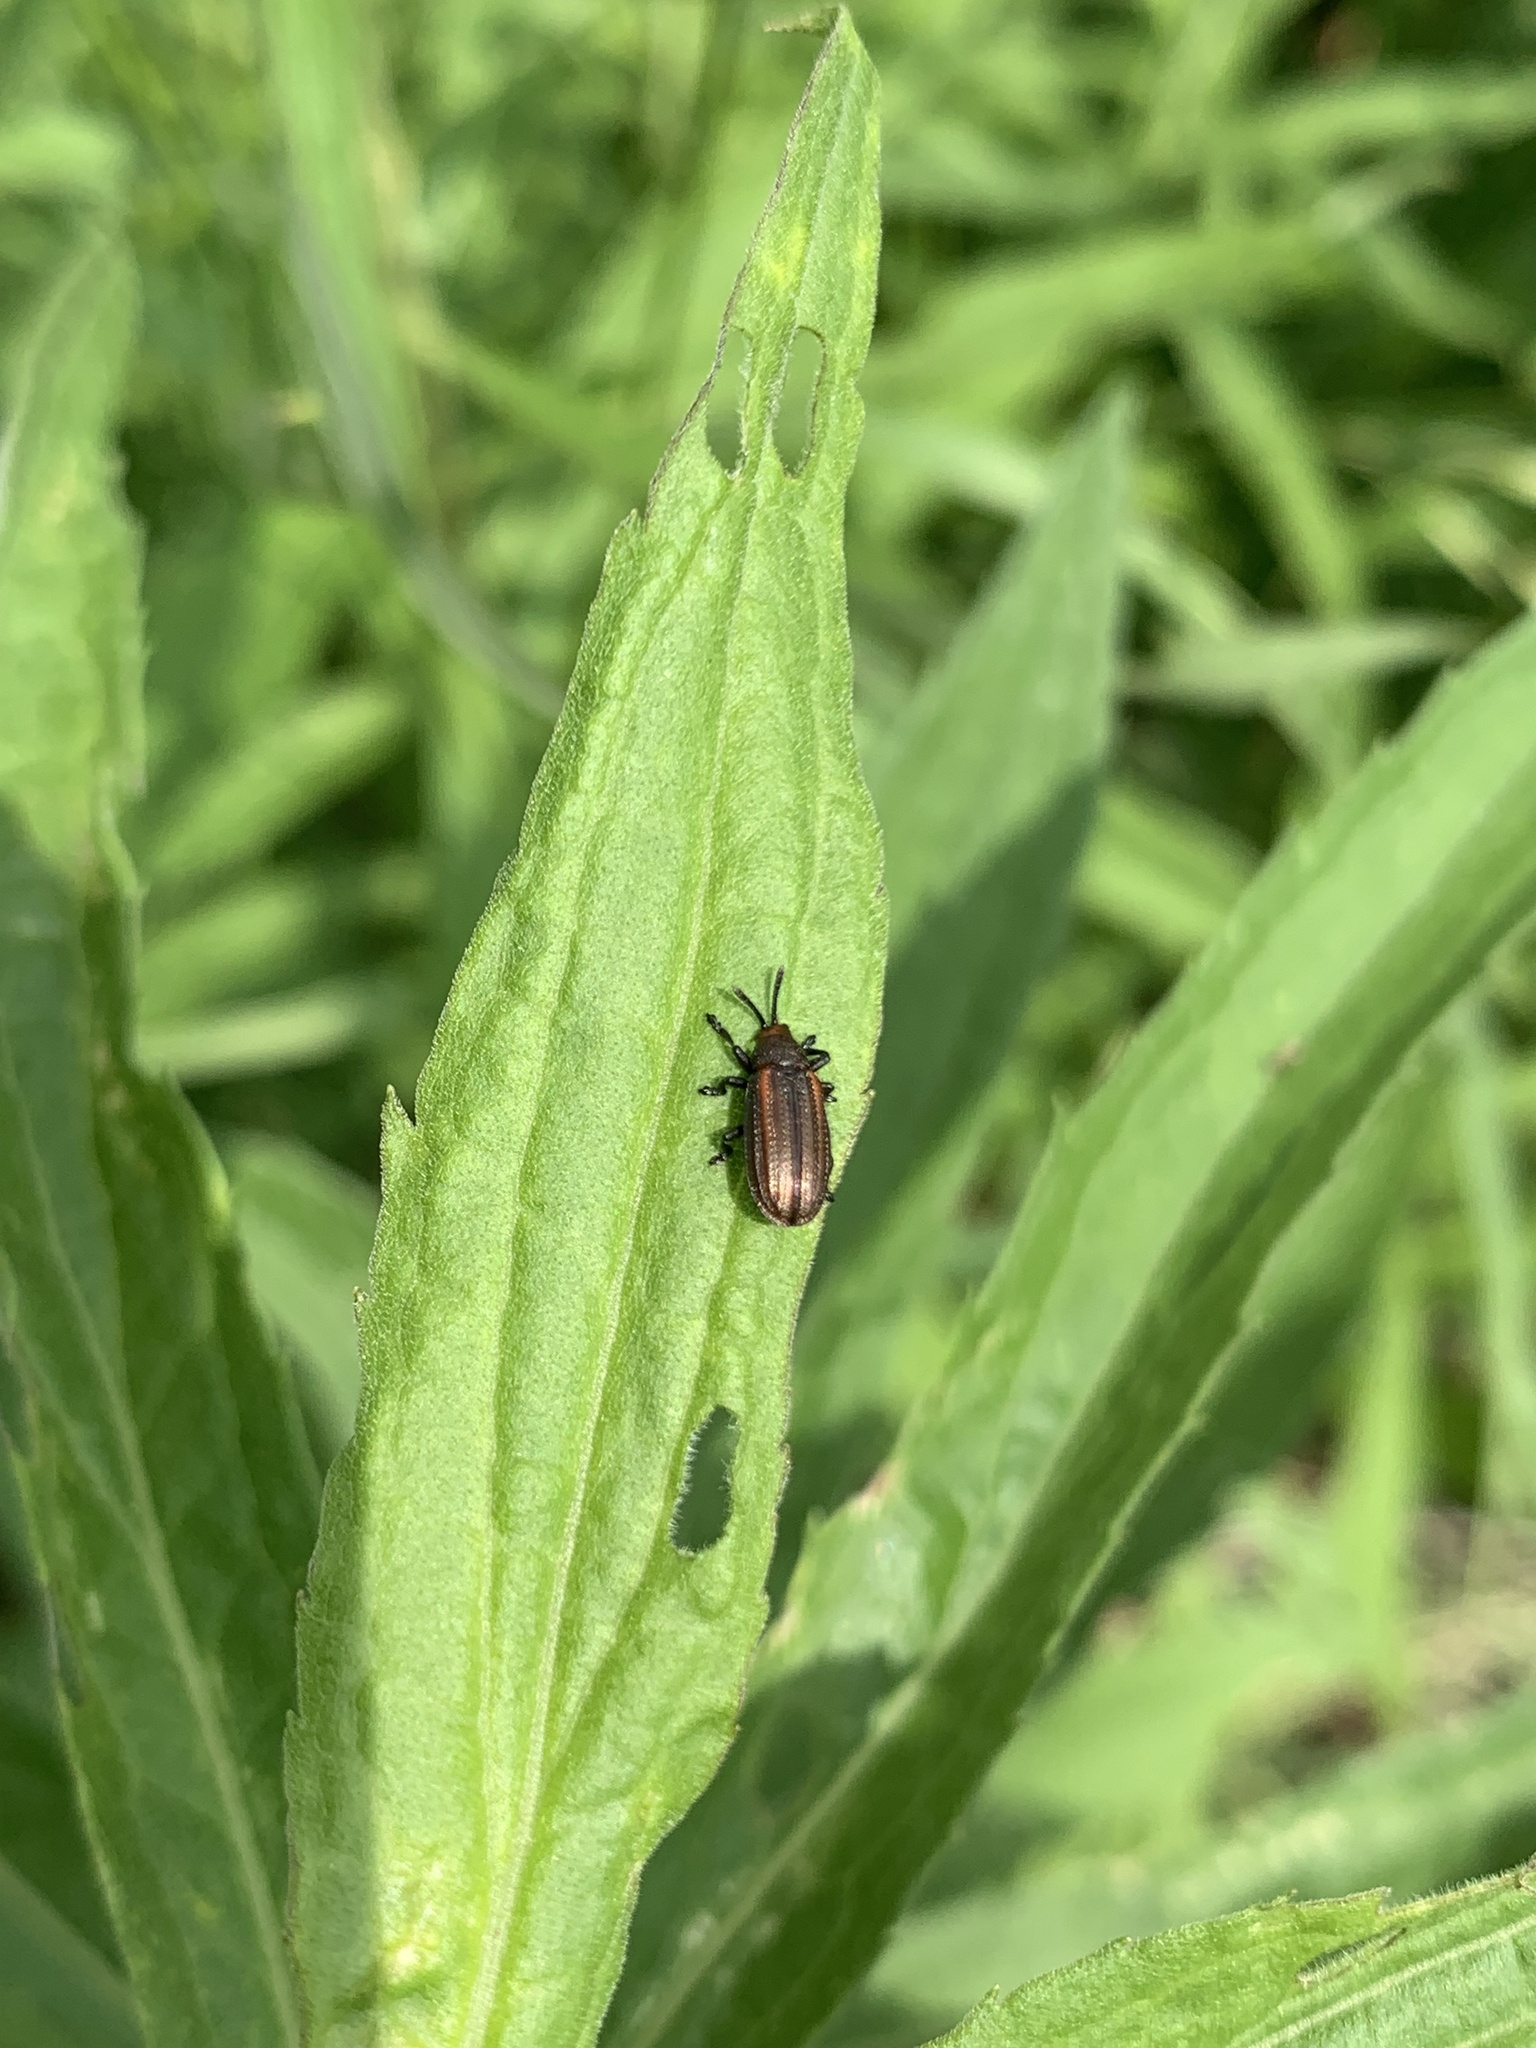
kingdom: Animalia
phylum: Arthropoda
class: Insecta
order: Coleoptera
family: Chrysomelidae
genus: Microrhopala
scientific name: Microrhopala vittata
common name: Goldenrod leaf miner beetle
